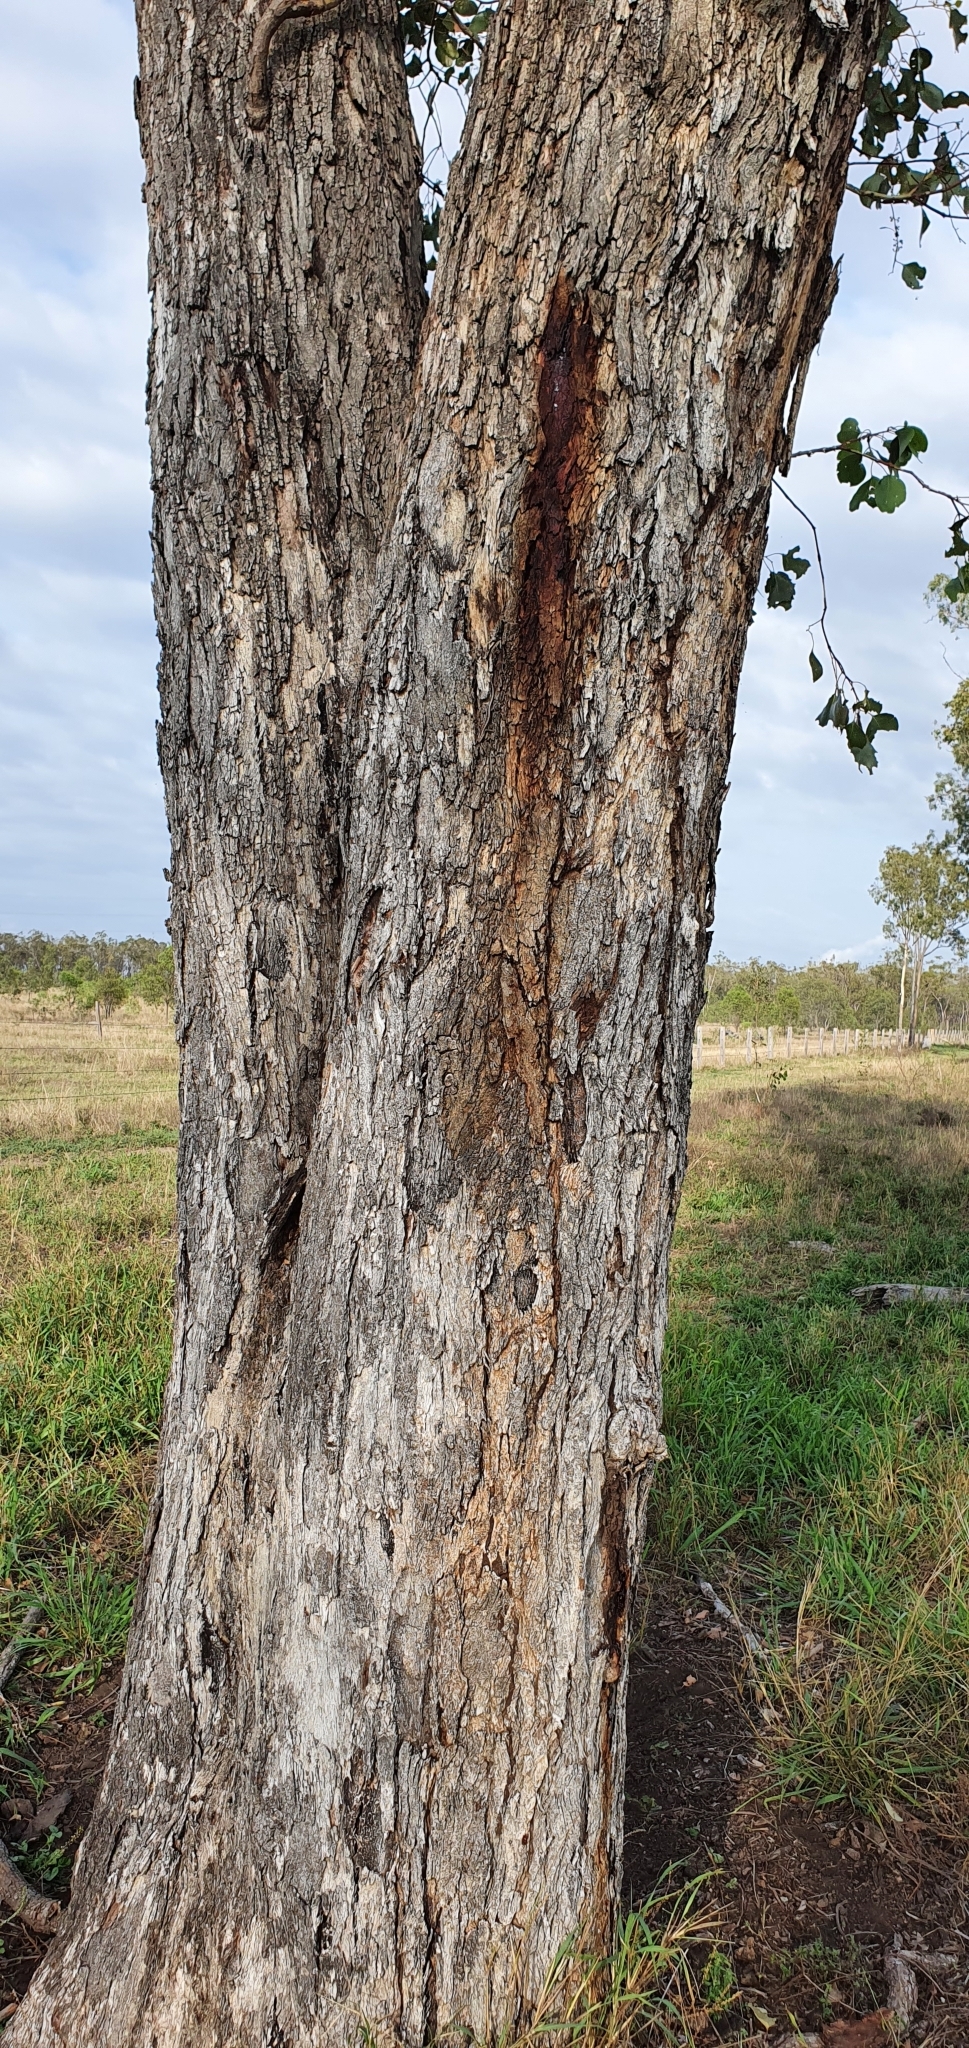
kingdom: Plantae
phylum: Tracheophyta
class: Magnoliopsida
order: Myrtales
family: Myrtaceae
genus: Eucalyptus
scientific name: Eucalyptus populnea
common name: Bimble box
